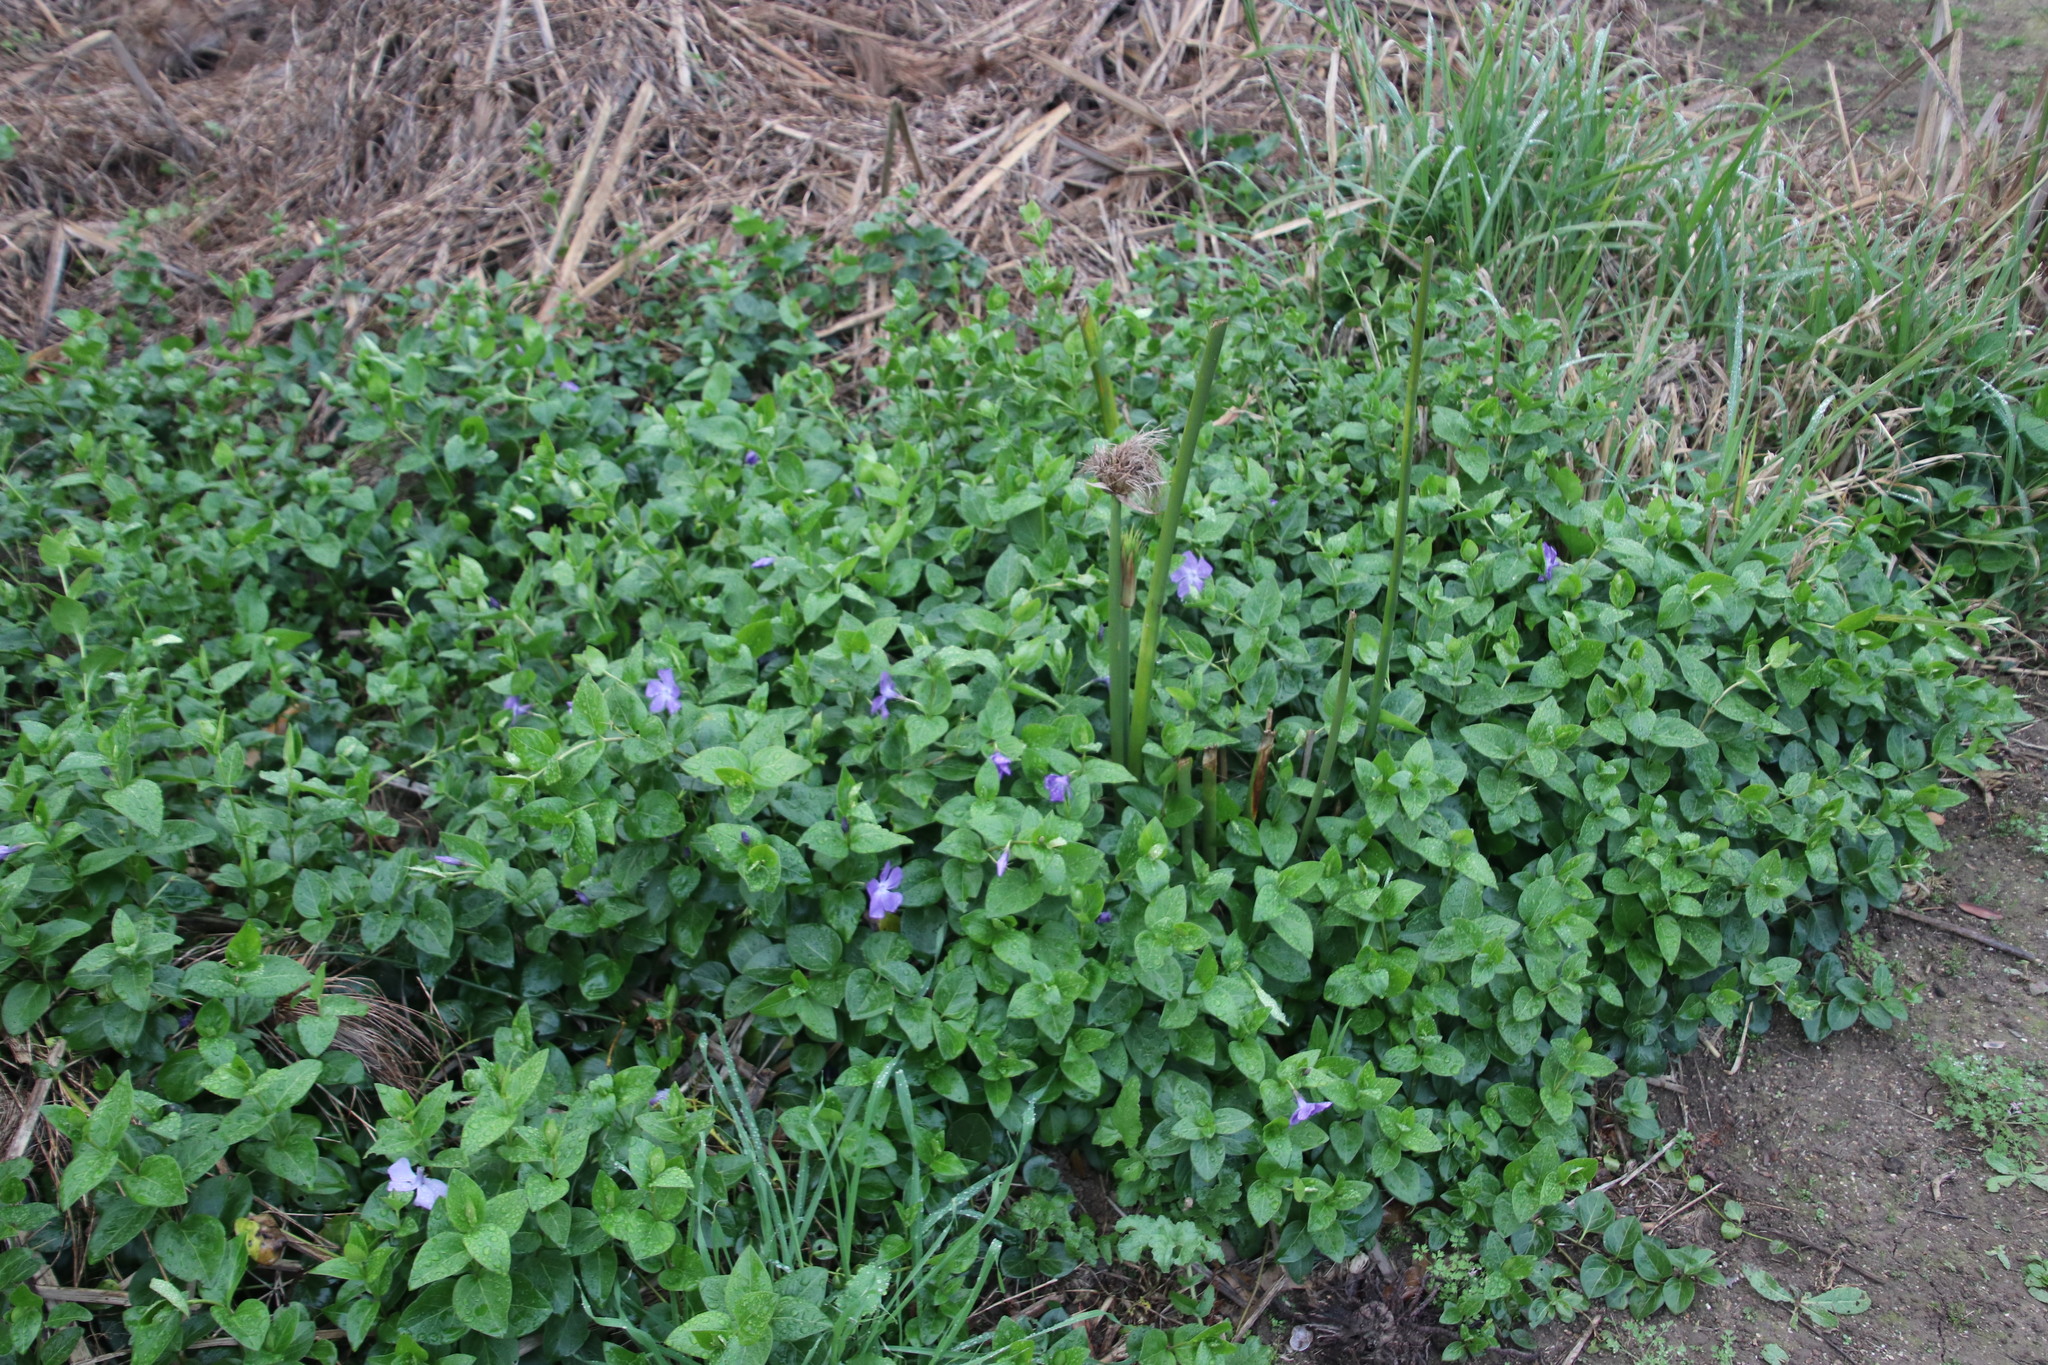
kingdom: Plantae
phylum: Tracheophyta
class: Magnoliopsida
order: Gentianales
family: Apocynaceae
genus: Vinca
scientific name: Vinca major
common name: Greater periwinkle
